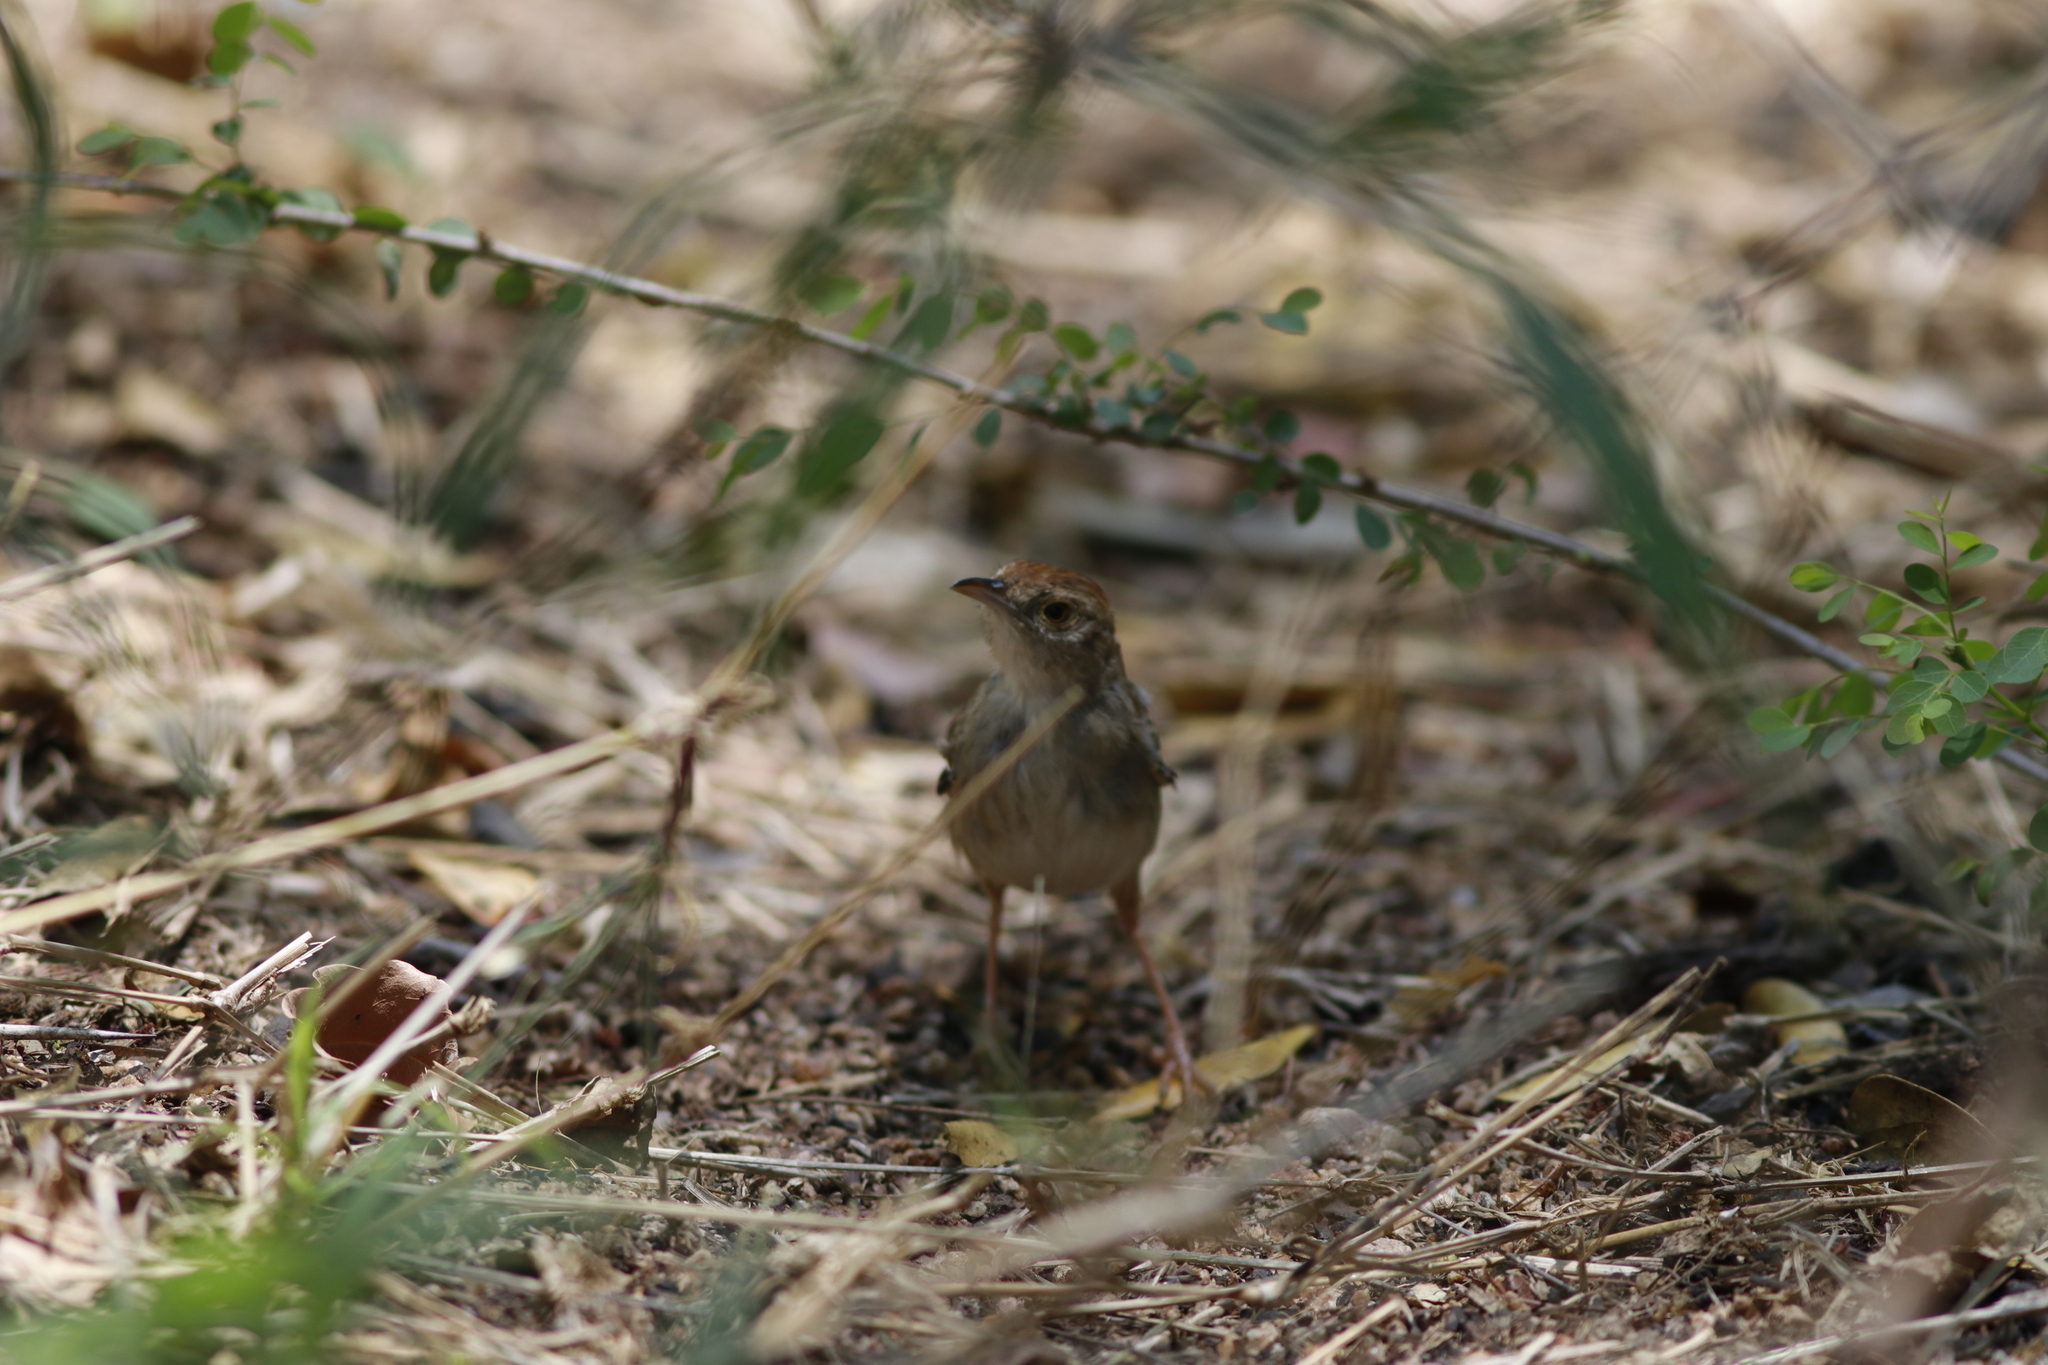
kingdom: Animalia
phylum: Chordata
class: Aves
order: Passeriformes
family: Cisticolidae
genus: Cisticola
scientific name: Cisticola chiniana
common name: Rattling cisticola
